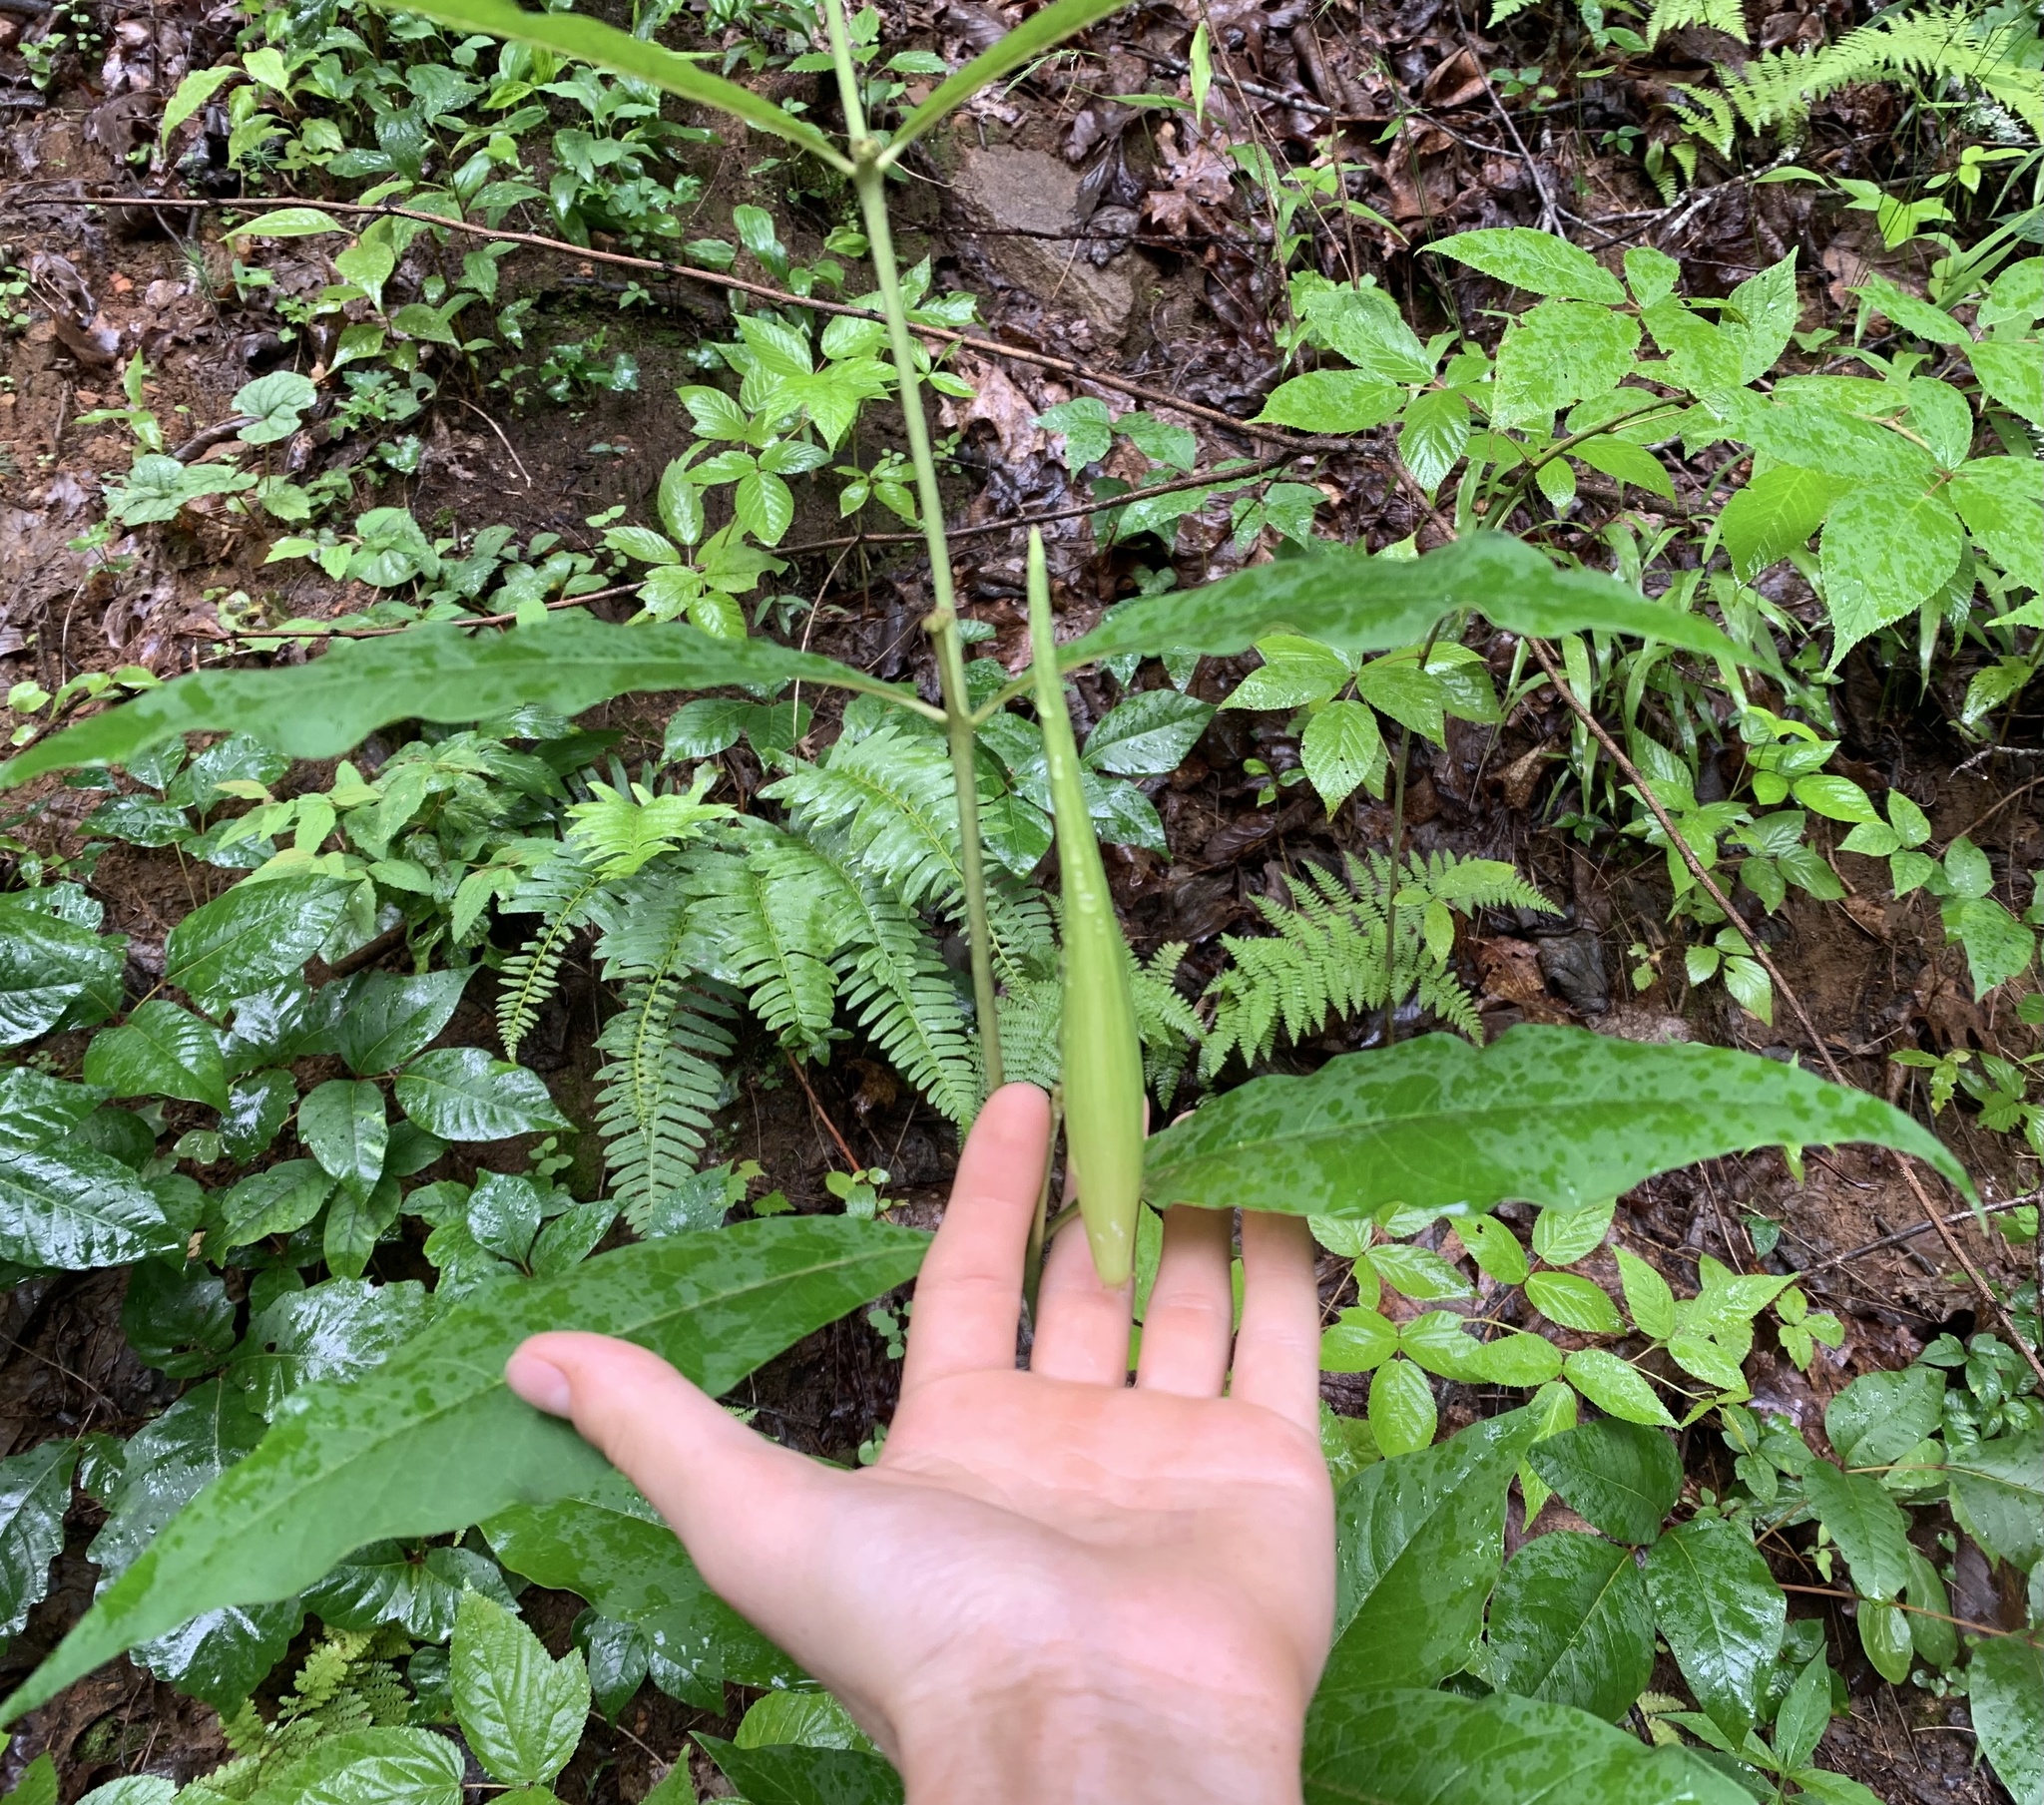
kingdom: Plantae
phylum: Tracheophyta
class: Magnoliopsida
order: Gentianales
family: Apocynaceae
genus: Asclepias
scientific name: Asclepias exaltata
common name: Poke milkweed
